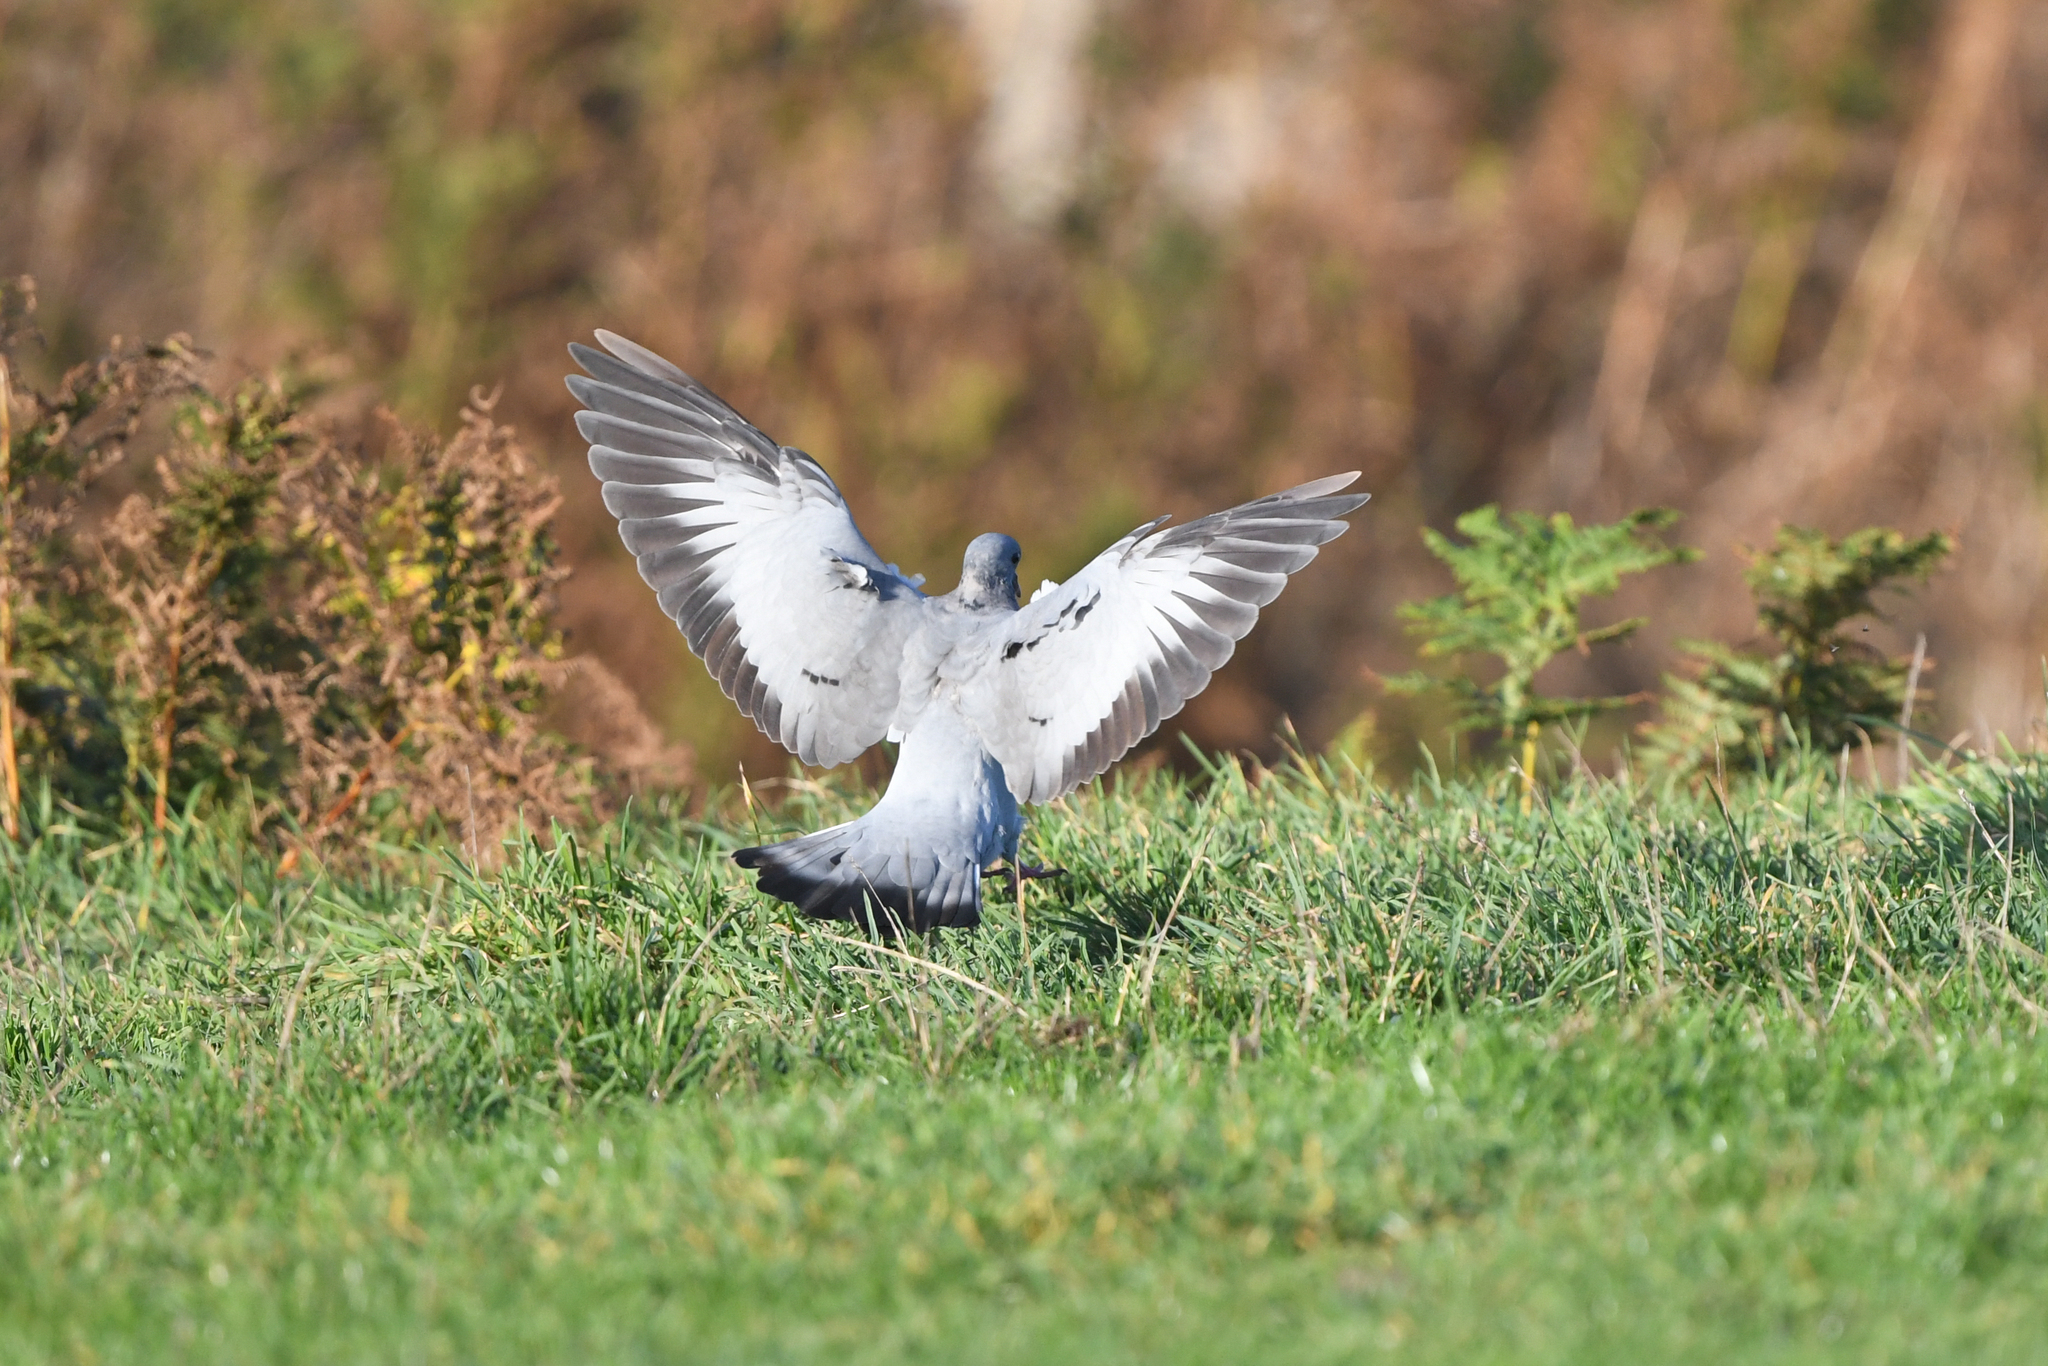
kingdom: Animalia
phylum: Chordata
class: Aves
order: Columbiformes
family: Columbidae
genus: Columba
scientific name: Columba oenas
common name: Stock dove
